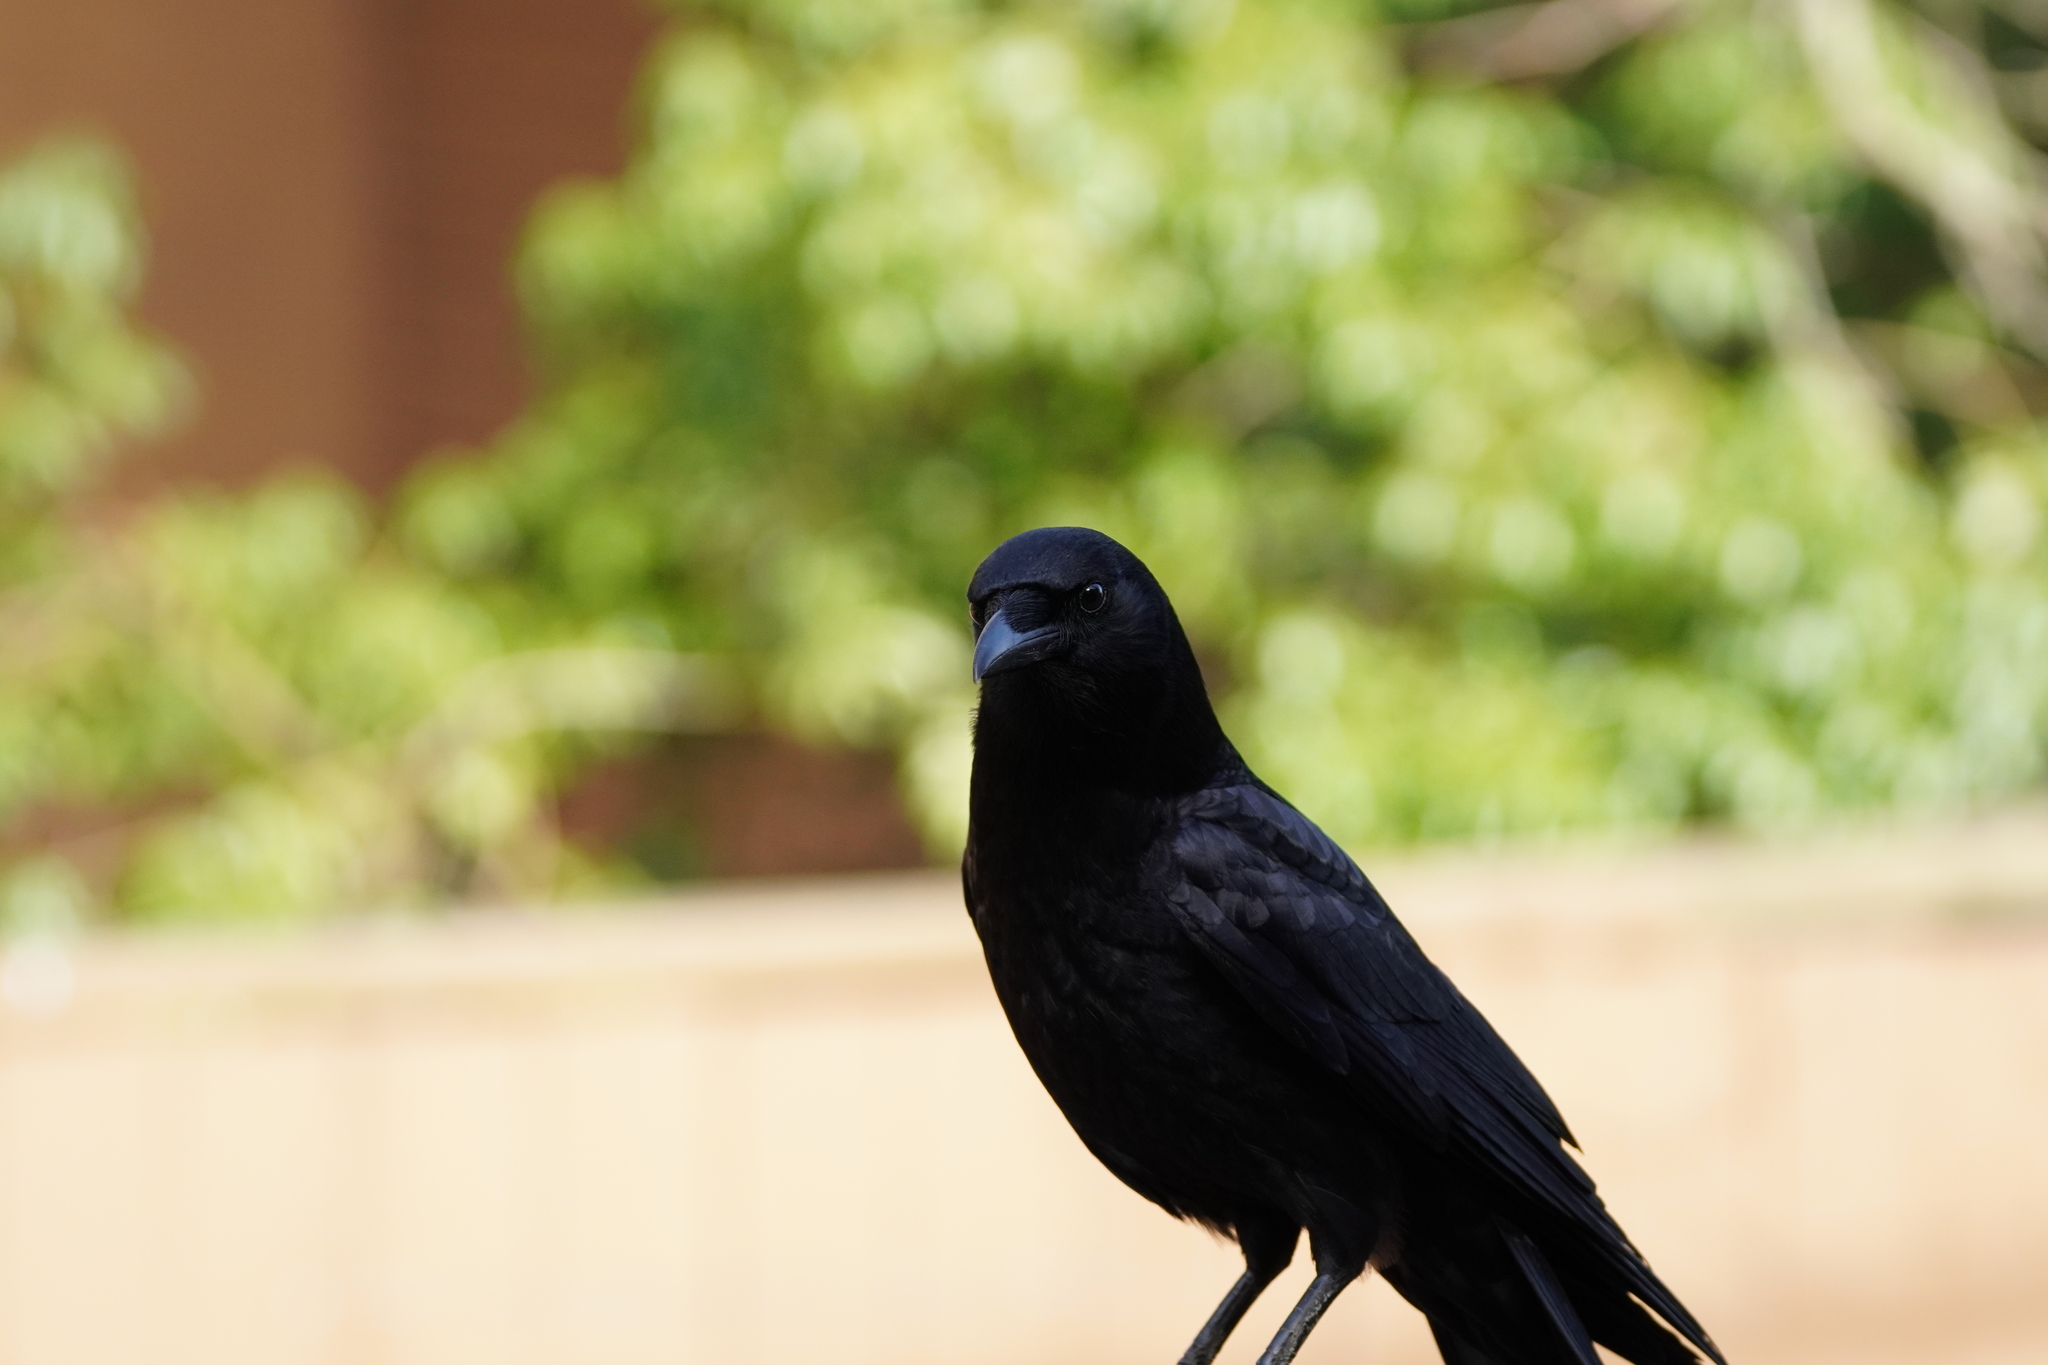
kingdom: Animalia
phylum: Chordata
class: Aves
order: Passeriformes
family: Corvidae
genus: Corvus
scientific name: Corvus brachyrhynchos
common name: American crow
